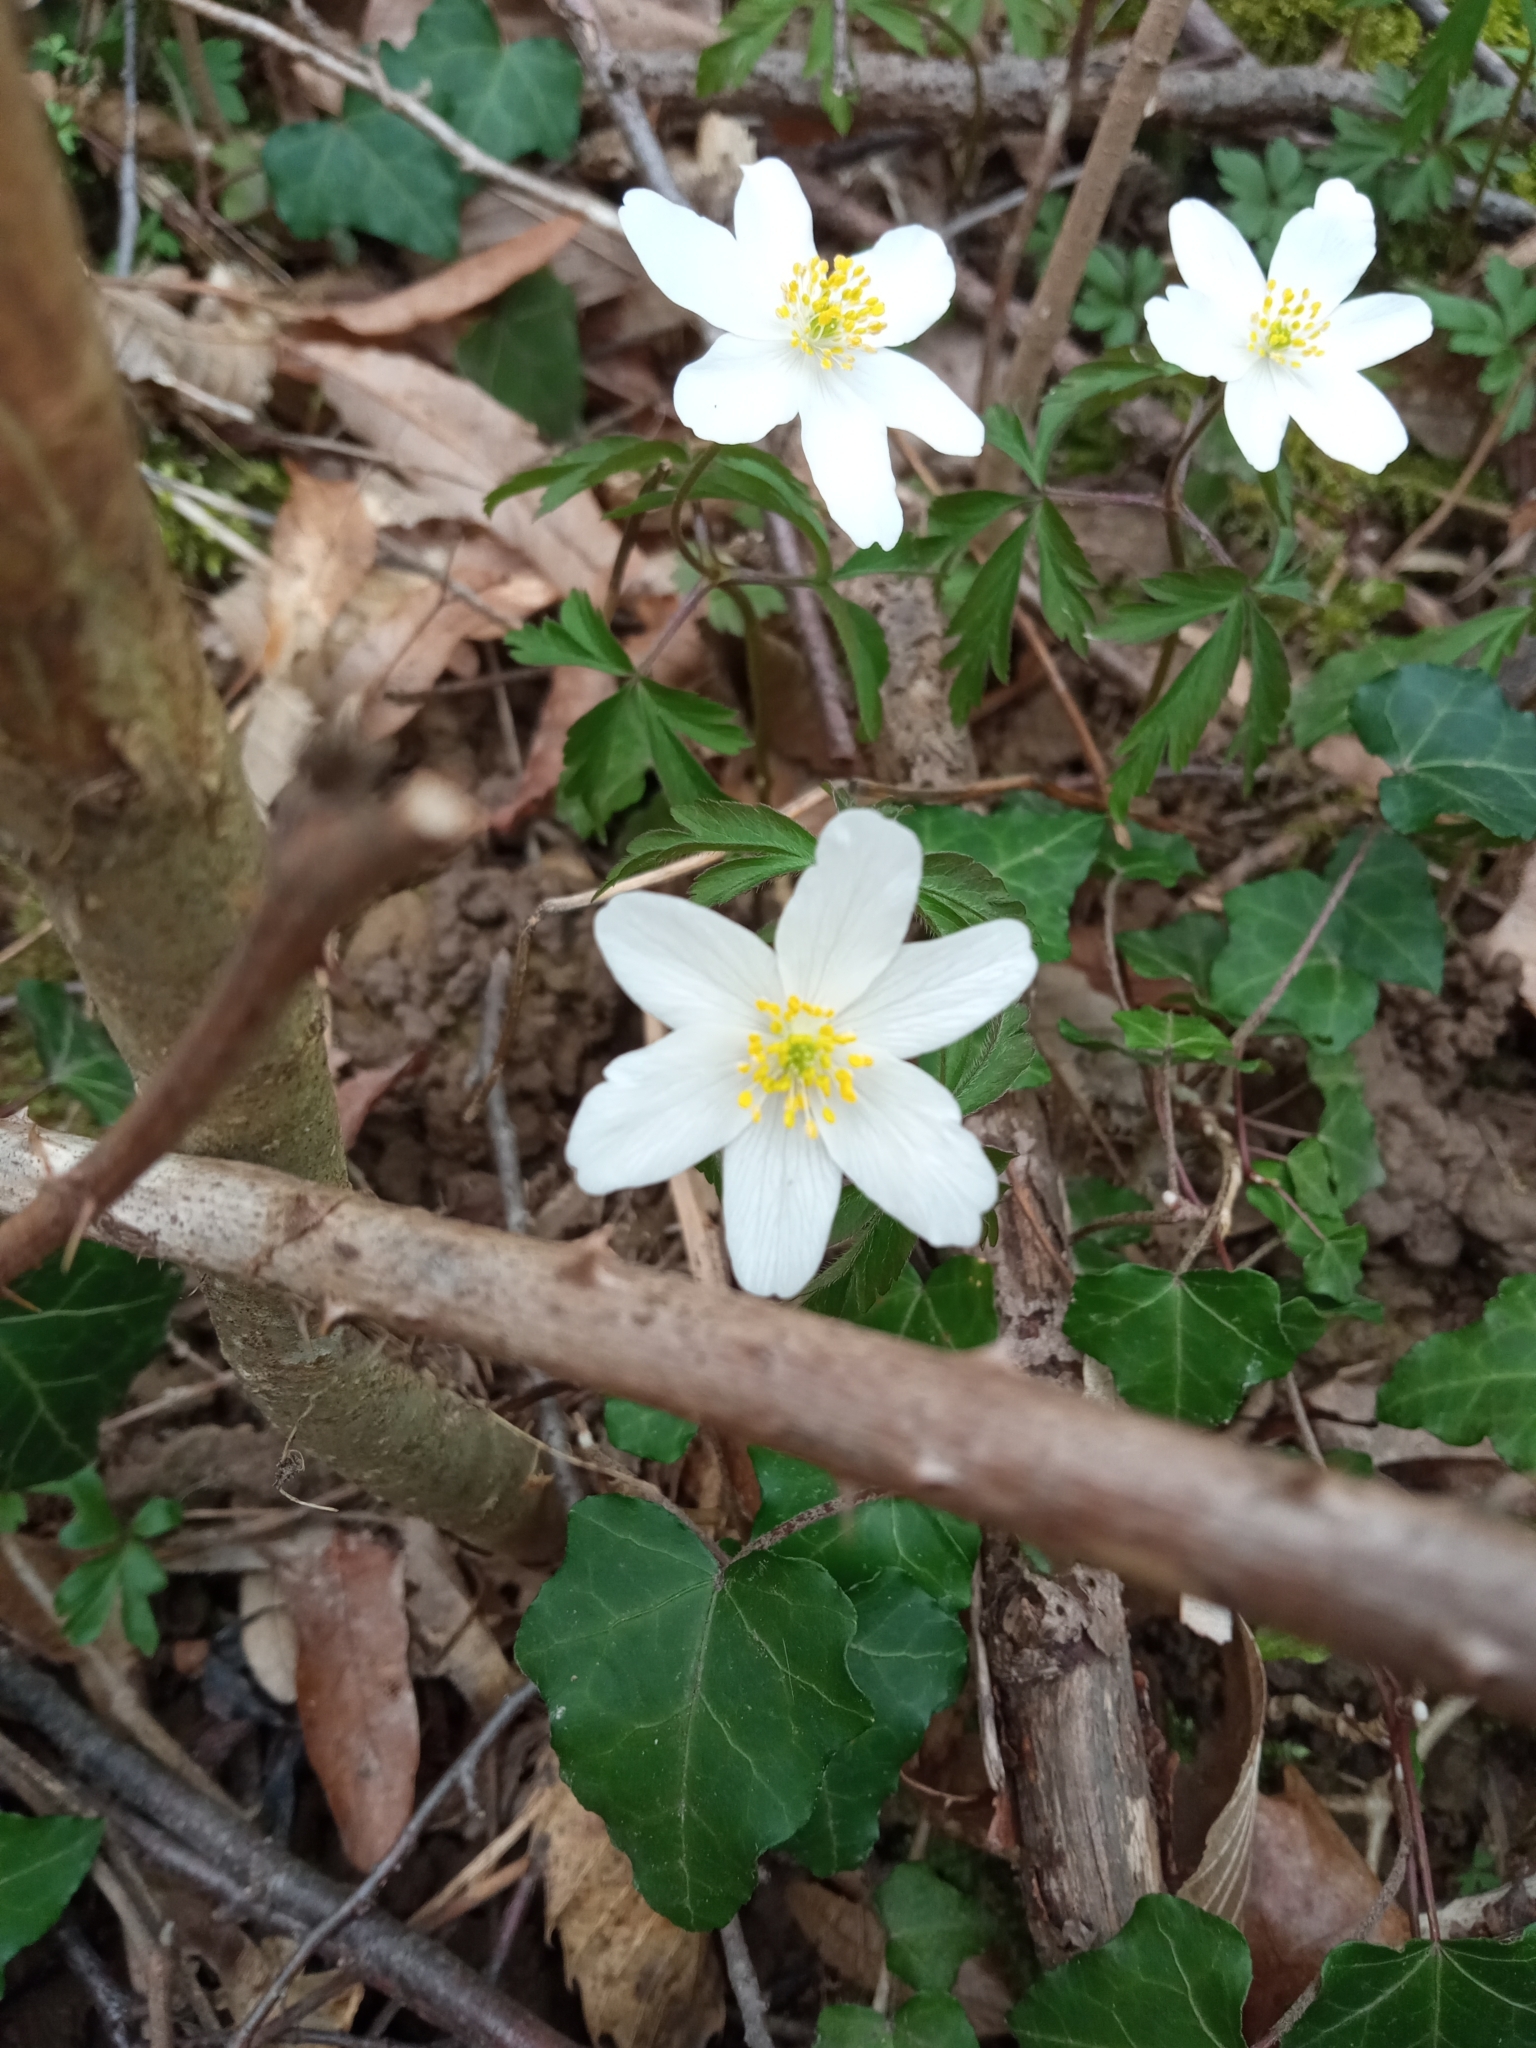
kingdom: Plantae
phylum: Tracheophyta
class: Magnoliopsida
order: Ranunculales
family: Ranunculaceae
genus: Anemone
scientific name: Anemone nemorosa
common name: Wood anemone
